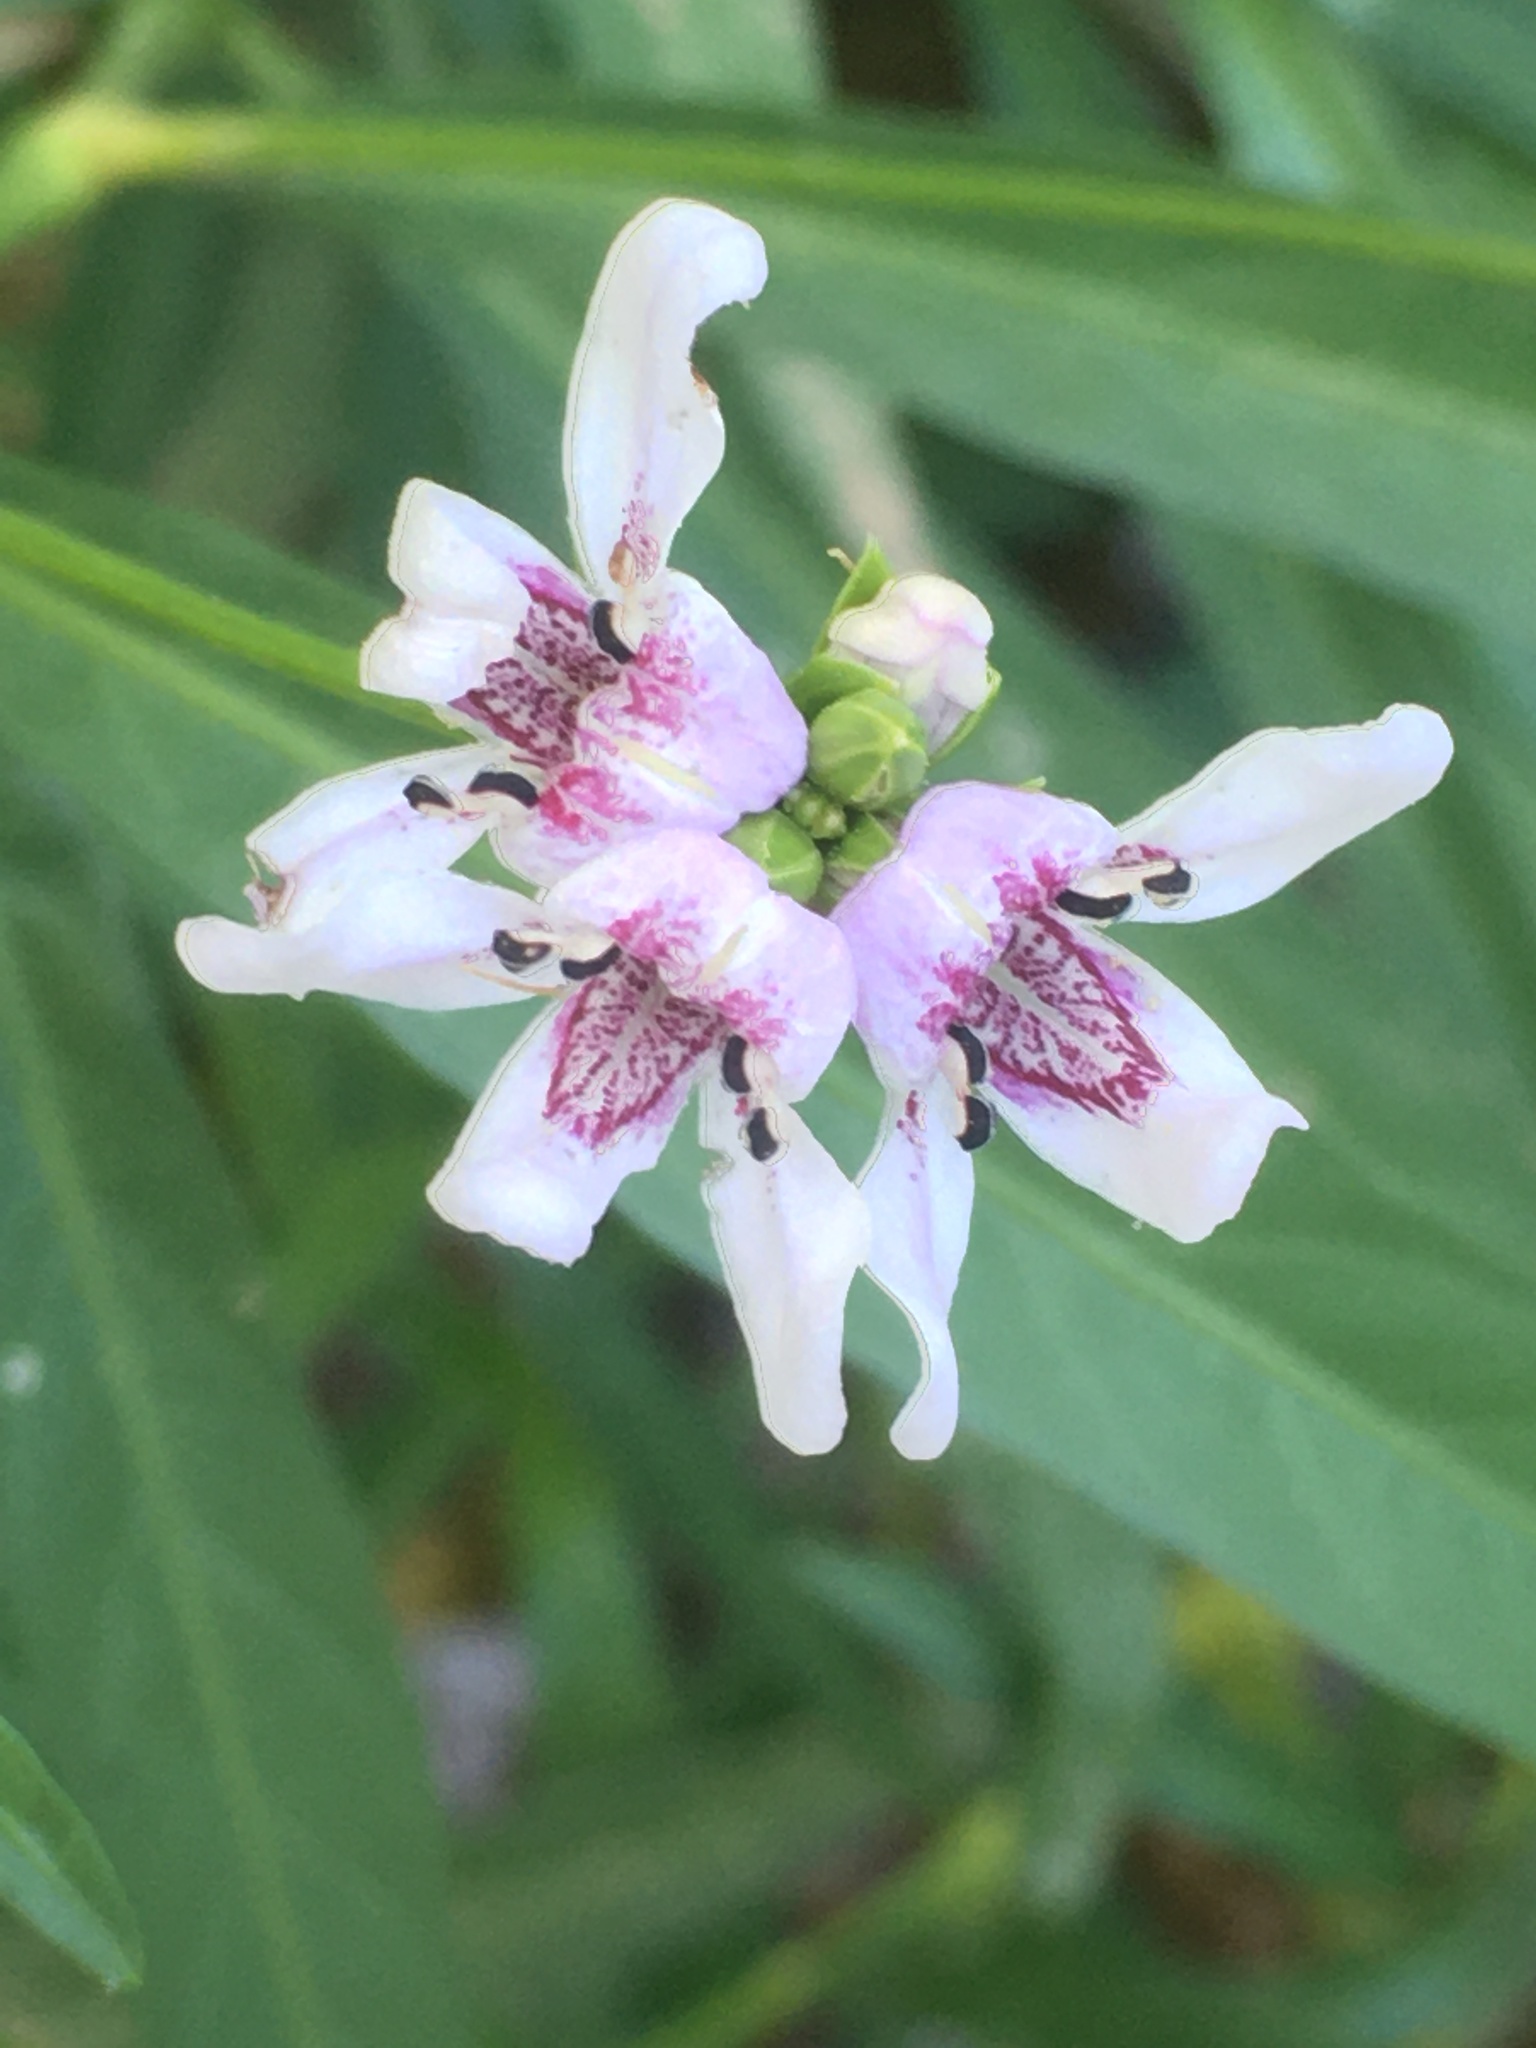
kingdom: Plantae
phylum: Tracheophyta
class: Magnoliopsida
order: Lamiales
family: Acanthaceae
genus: Dianthera
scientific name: Dianthera americana
